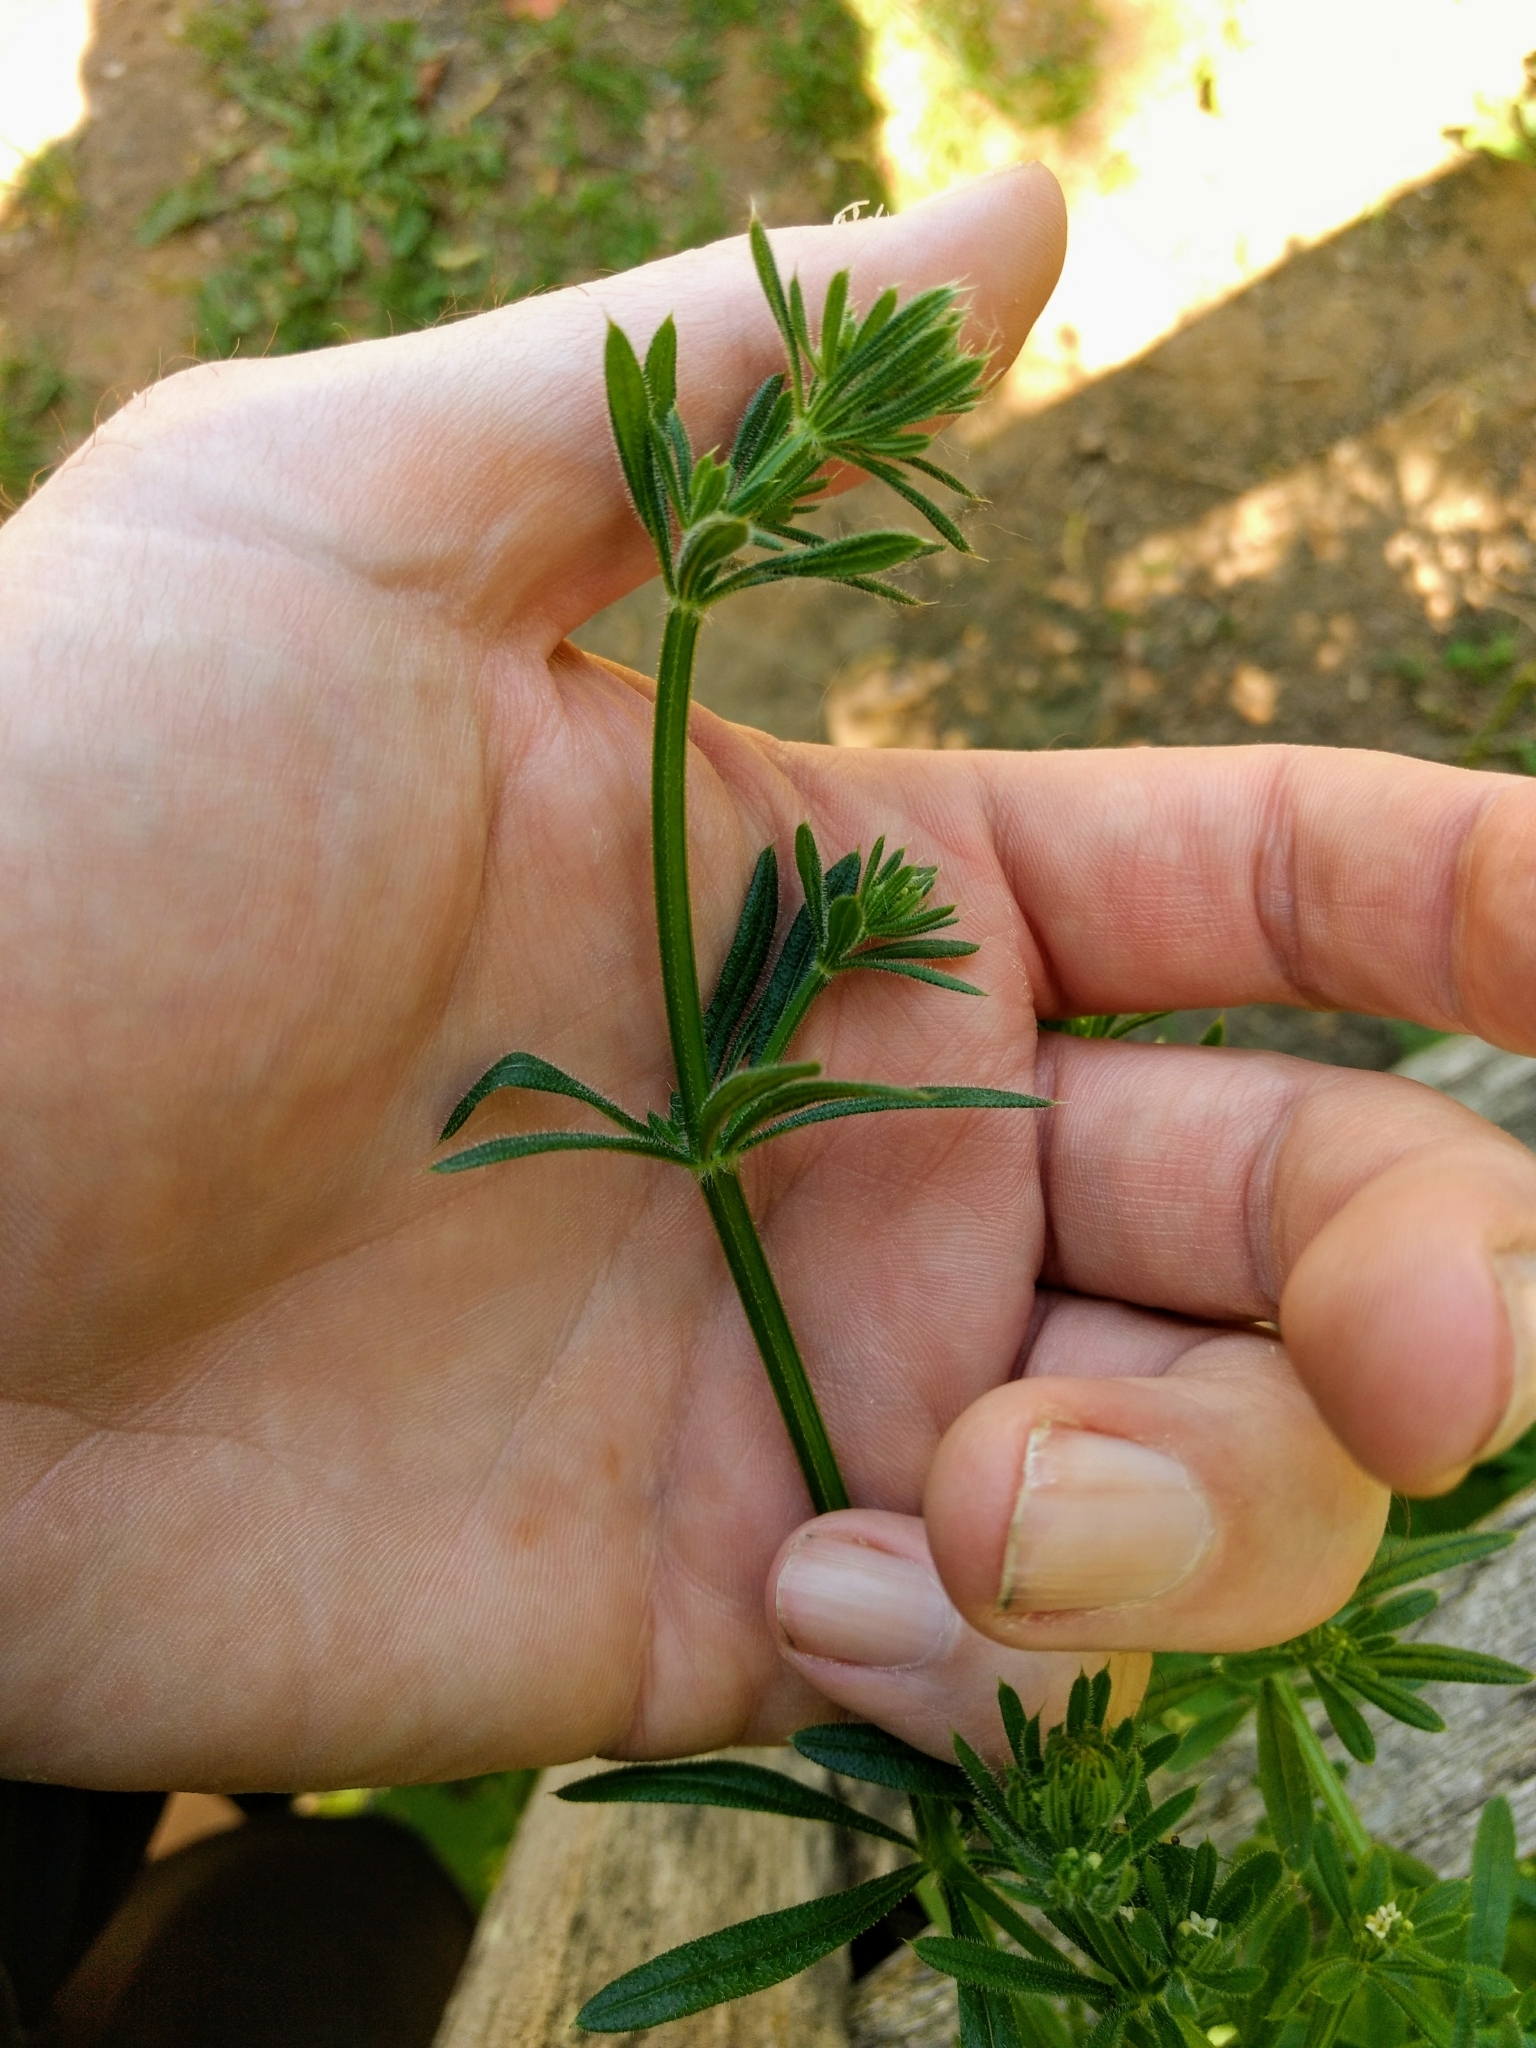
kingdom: Plantae
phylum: Tracheophyta
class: Magnoliopsida
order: Gentianales
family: Rubiaceae
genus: Galium
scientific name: Galium aparine
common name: Cleavers
